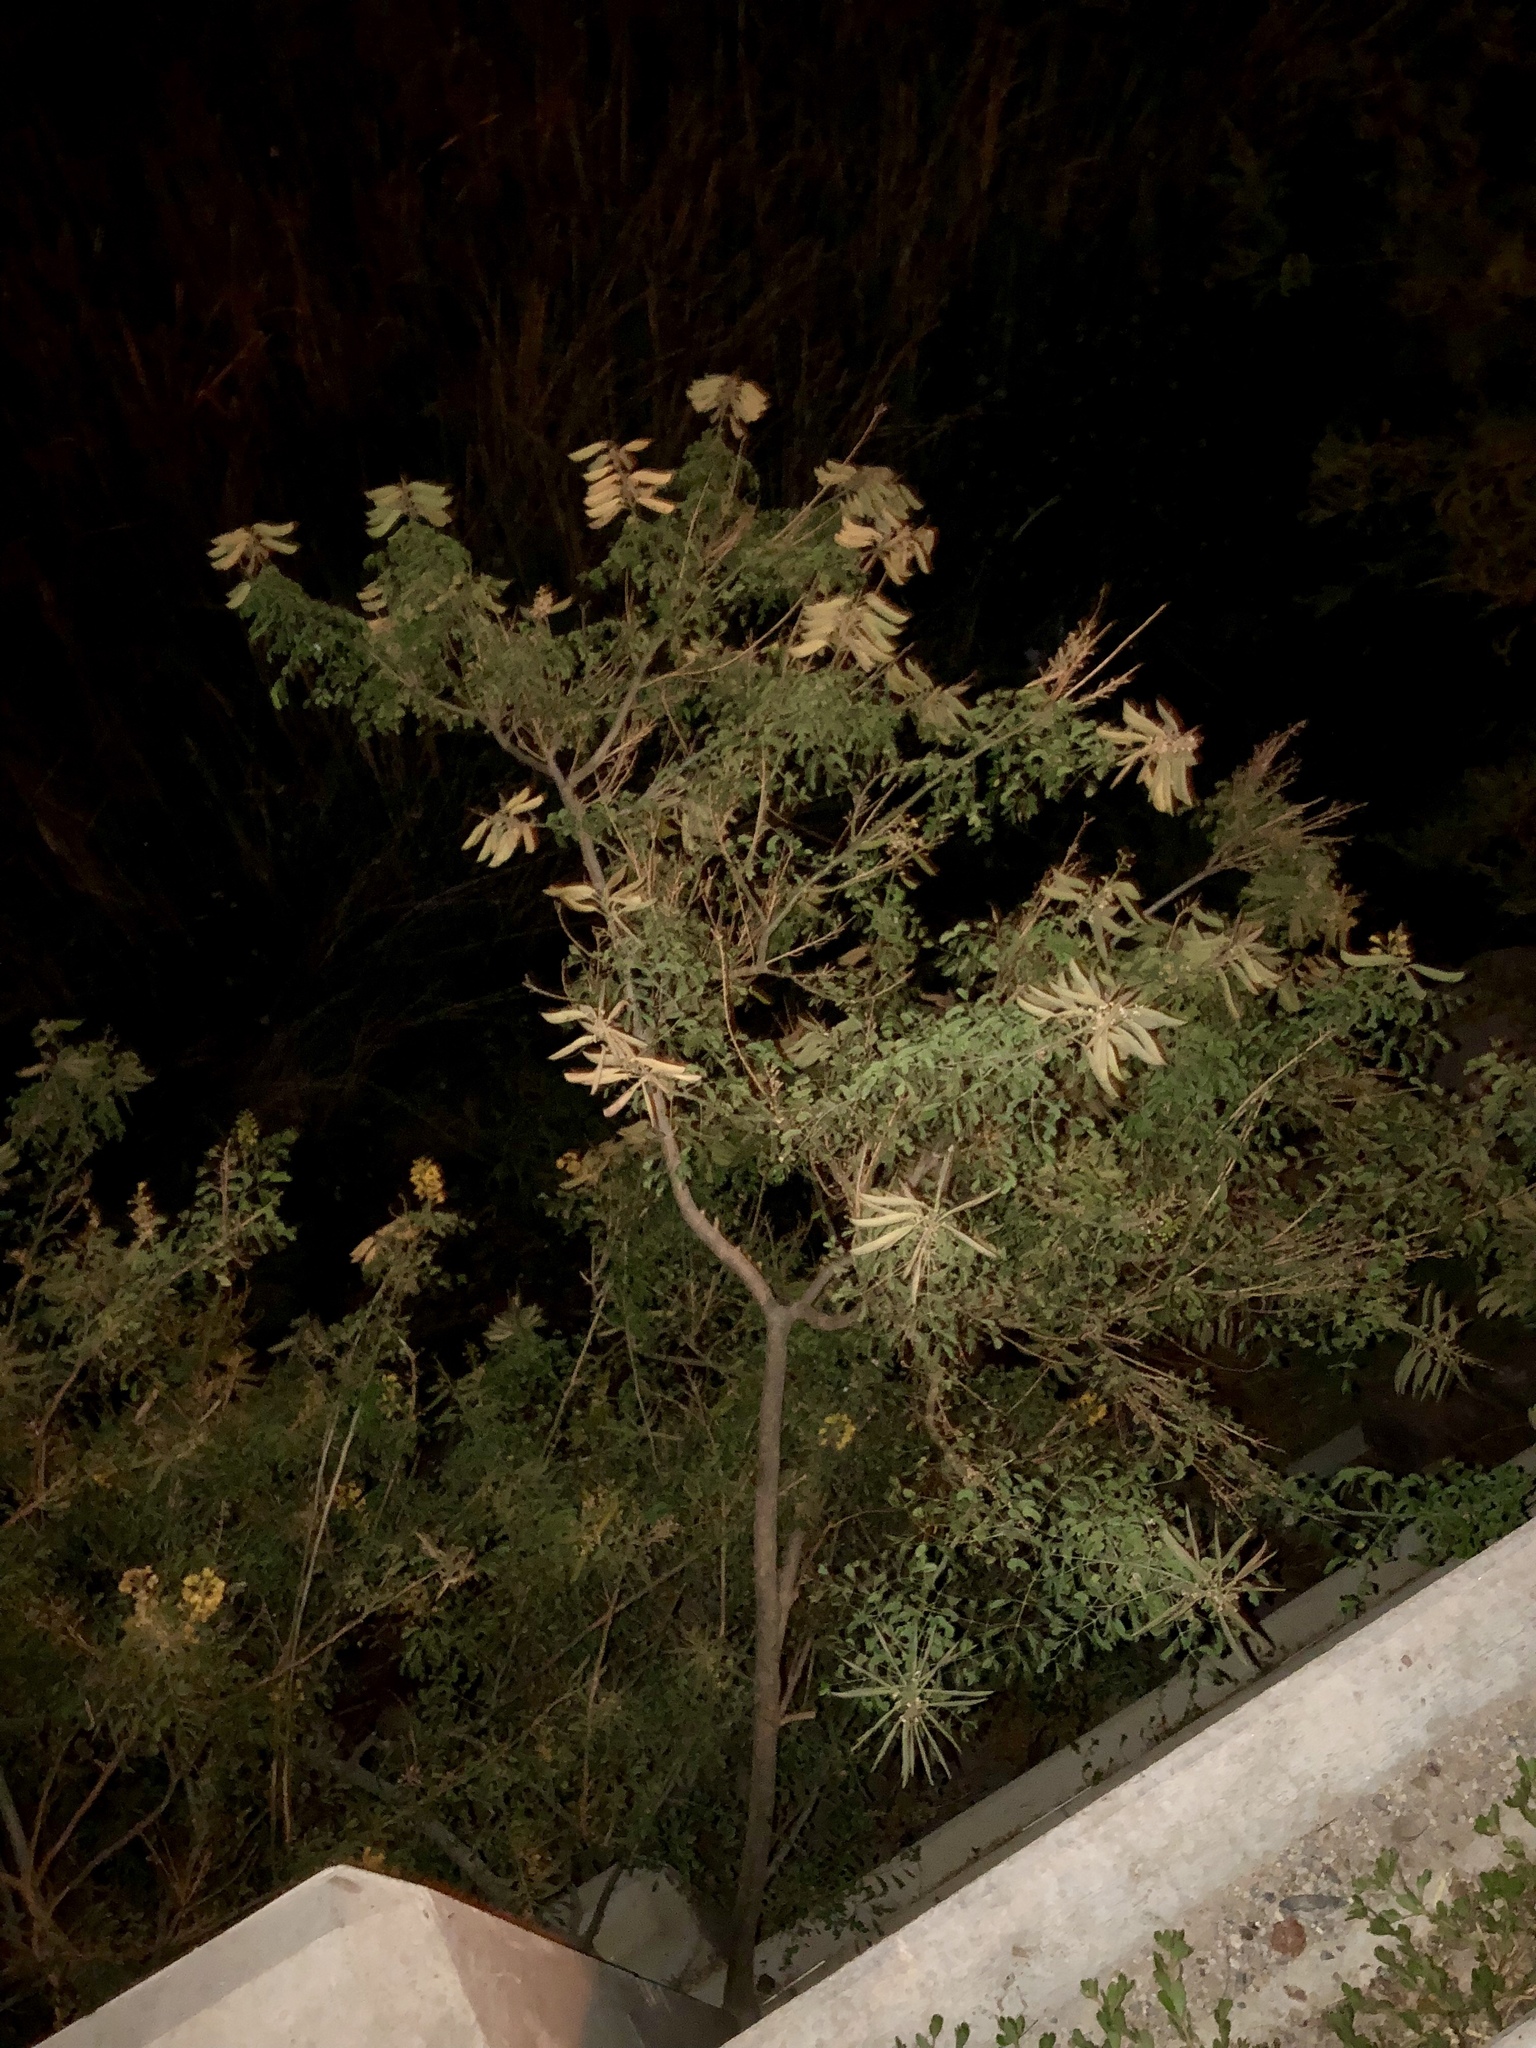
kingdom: Plantae
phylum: Tracheophyta
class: Magnoliopsida
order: Fabales
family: Fabaceae
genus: Erythrostemon
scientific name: Erythrostemon gilliesii
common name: Bird-of-paradise shrub
